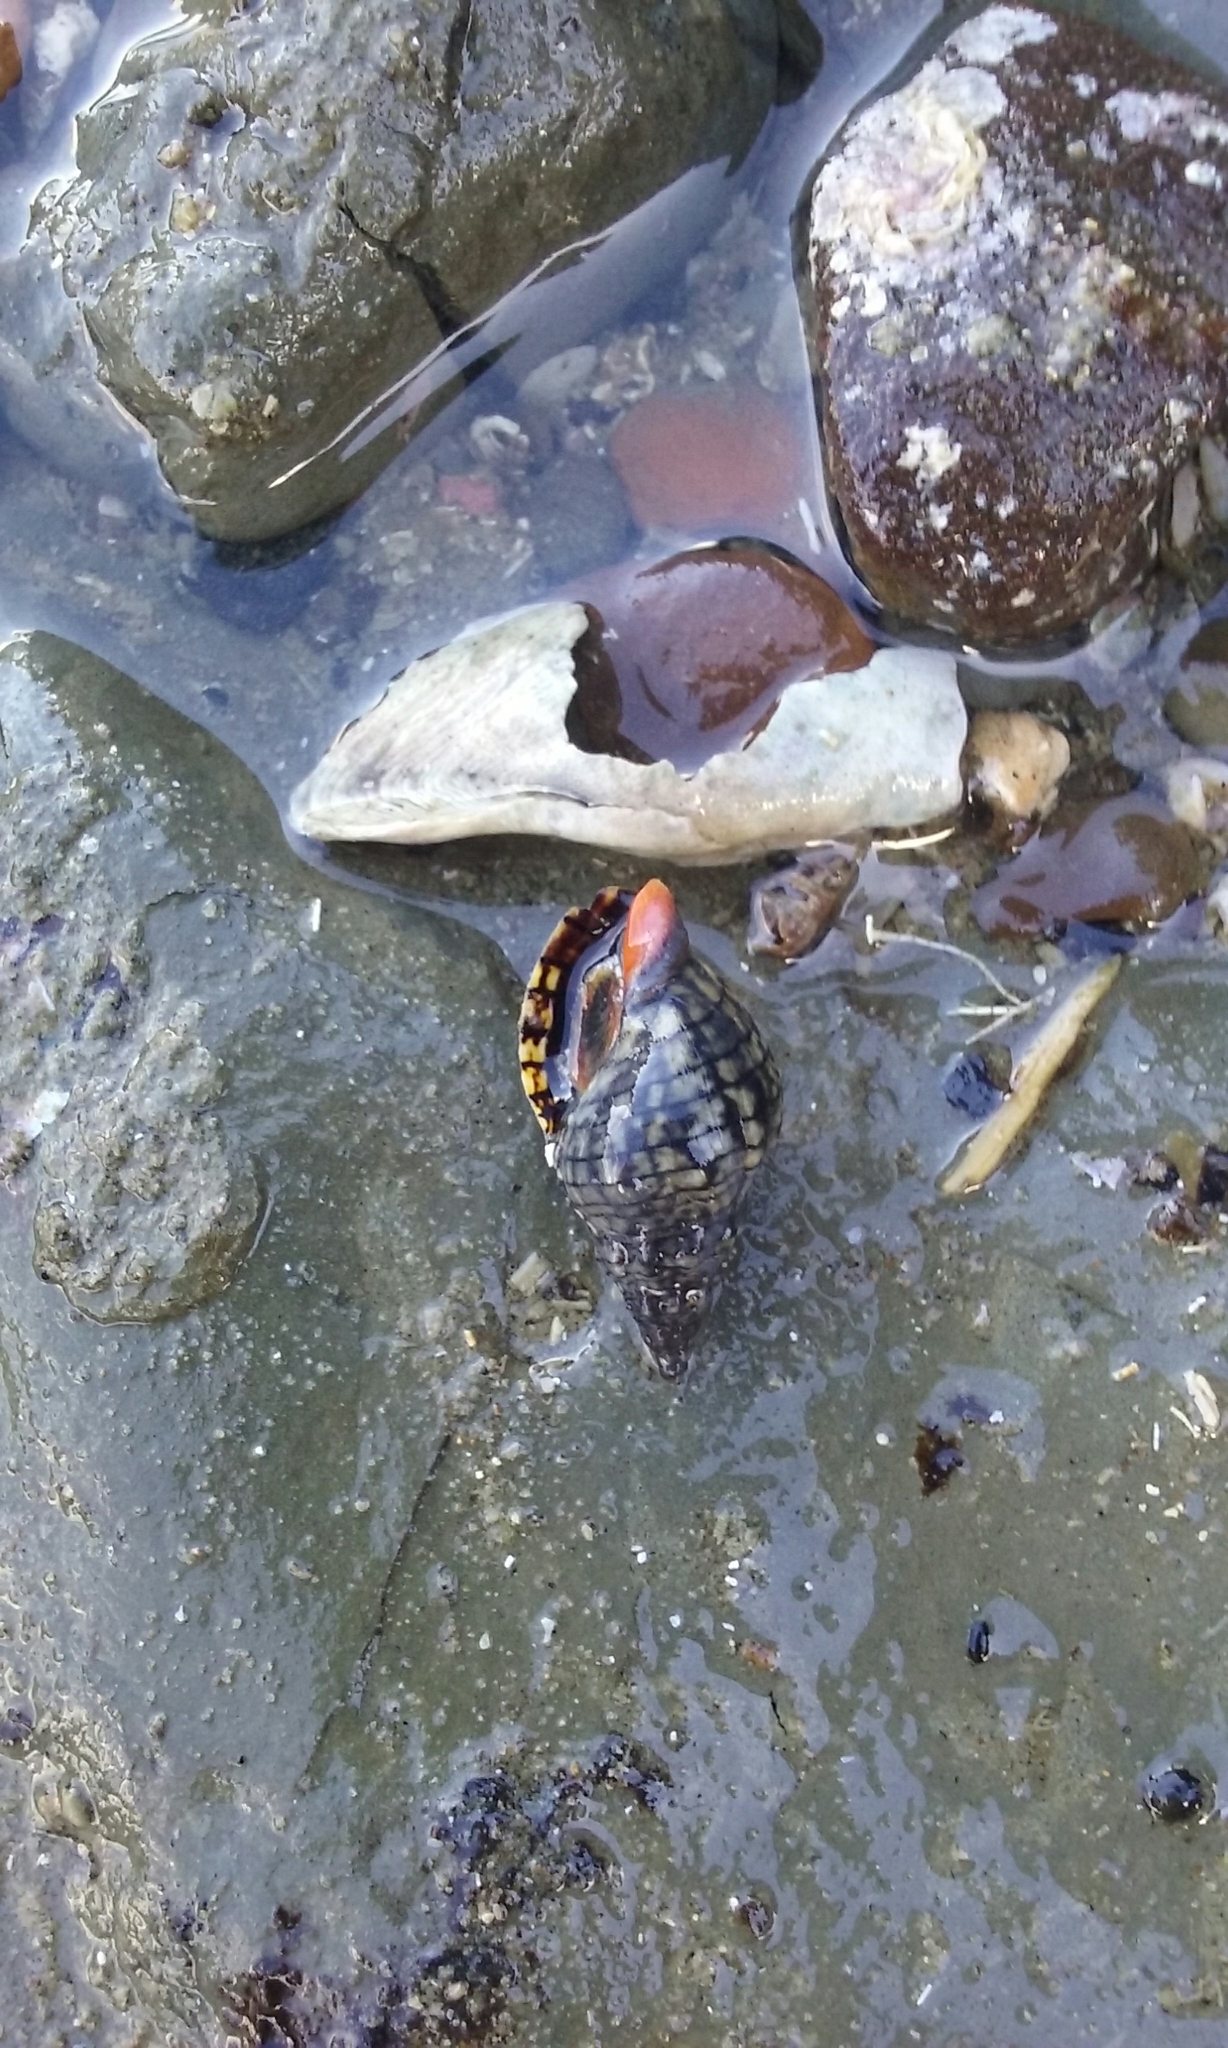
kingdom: Animalia
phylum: Mollusca
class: Gastropoda
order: Neogastropoda
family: Cominellidae
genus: Cominella
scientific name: Cominella virgata
